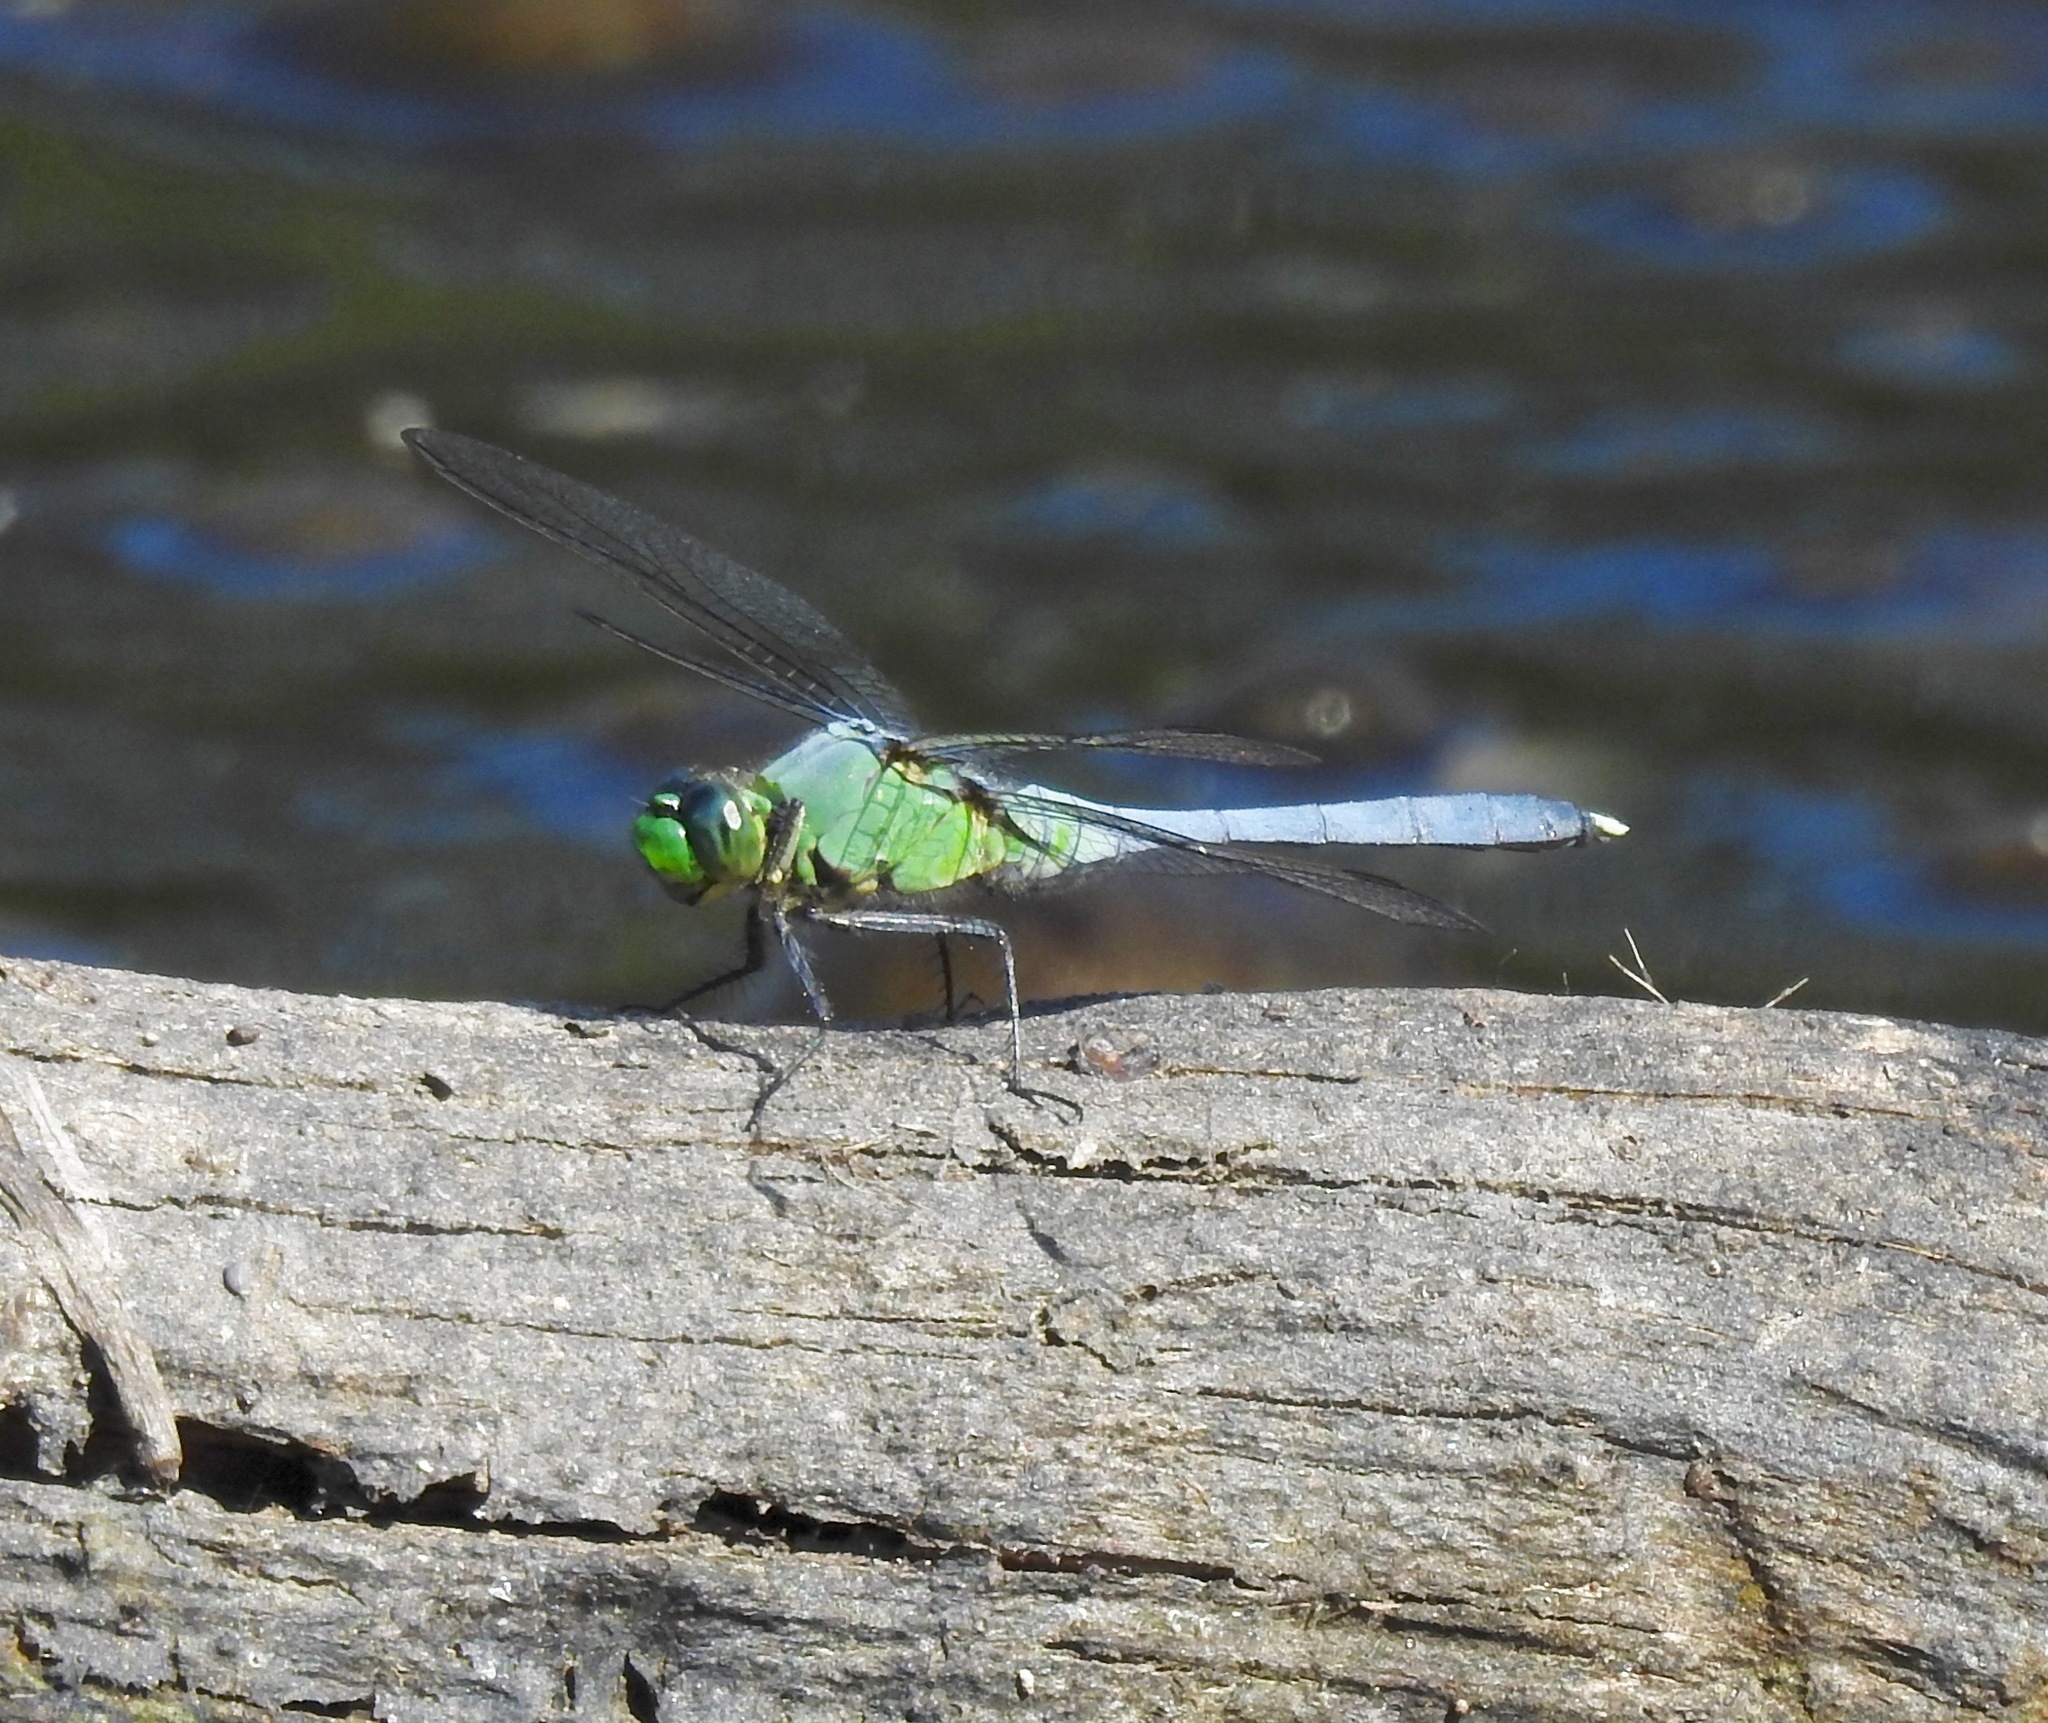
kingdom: Animalia
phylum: Arthropoda
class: Insecta
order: Odonata
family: Libellulidae
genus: Erythemis
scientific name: Erythemis simplicicollis
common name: Eastern pondhawk
